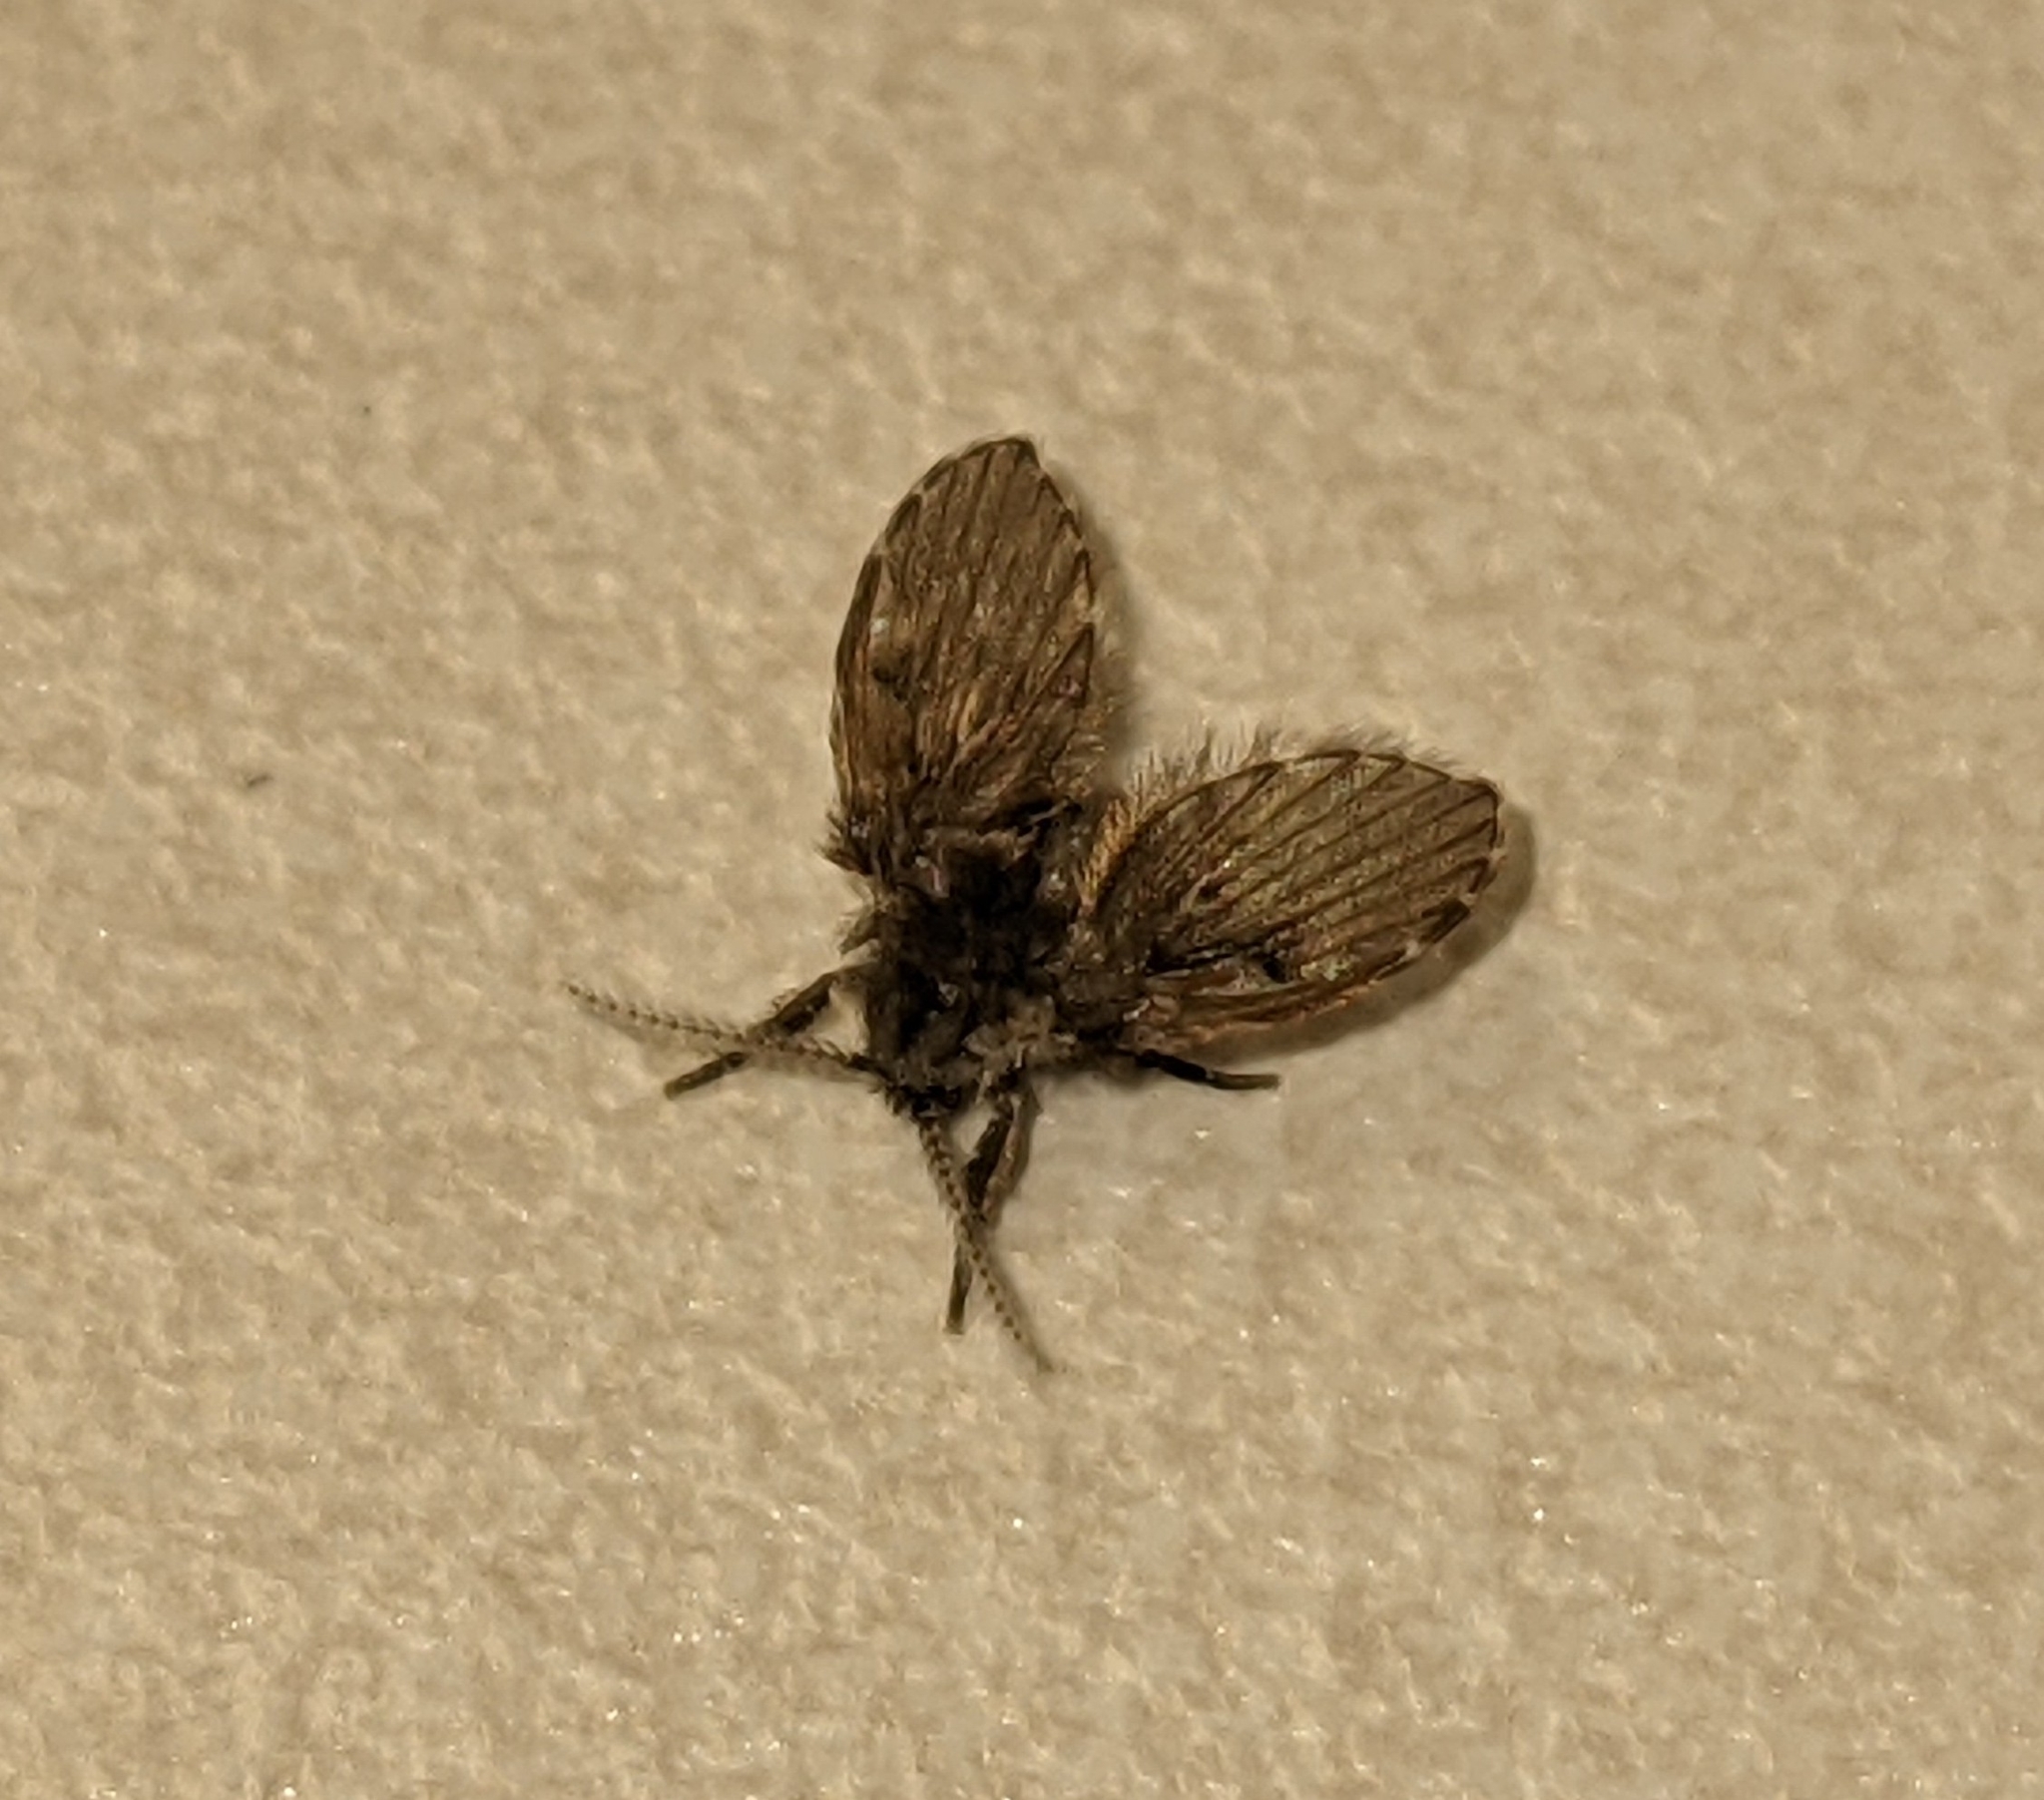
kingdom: Animalia
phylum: Arthropoda
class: Insecta
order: Diptera
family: Psychodidae
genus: Clogmia
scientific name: Clogmia albipunctatus
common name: White-spotted moth fly
